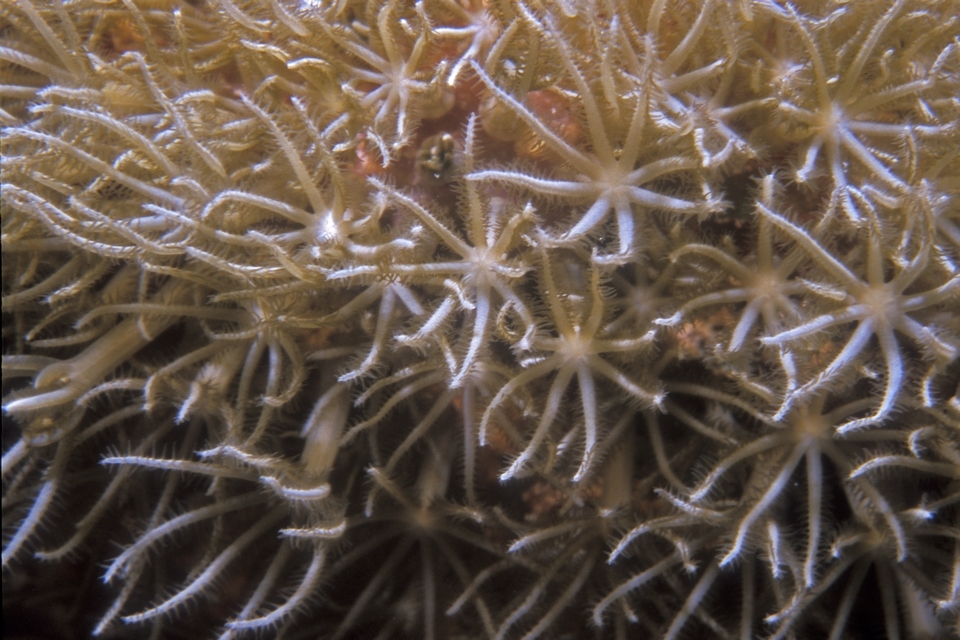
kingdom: Animalia
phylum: Cnidaria
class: Anthozoa
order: Scleralcyonacea
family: Erythropodiidae
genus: Erythropodium
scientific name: Erythropodium caribaeorum
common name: Encrusting gorgonian
